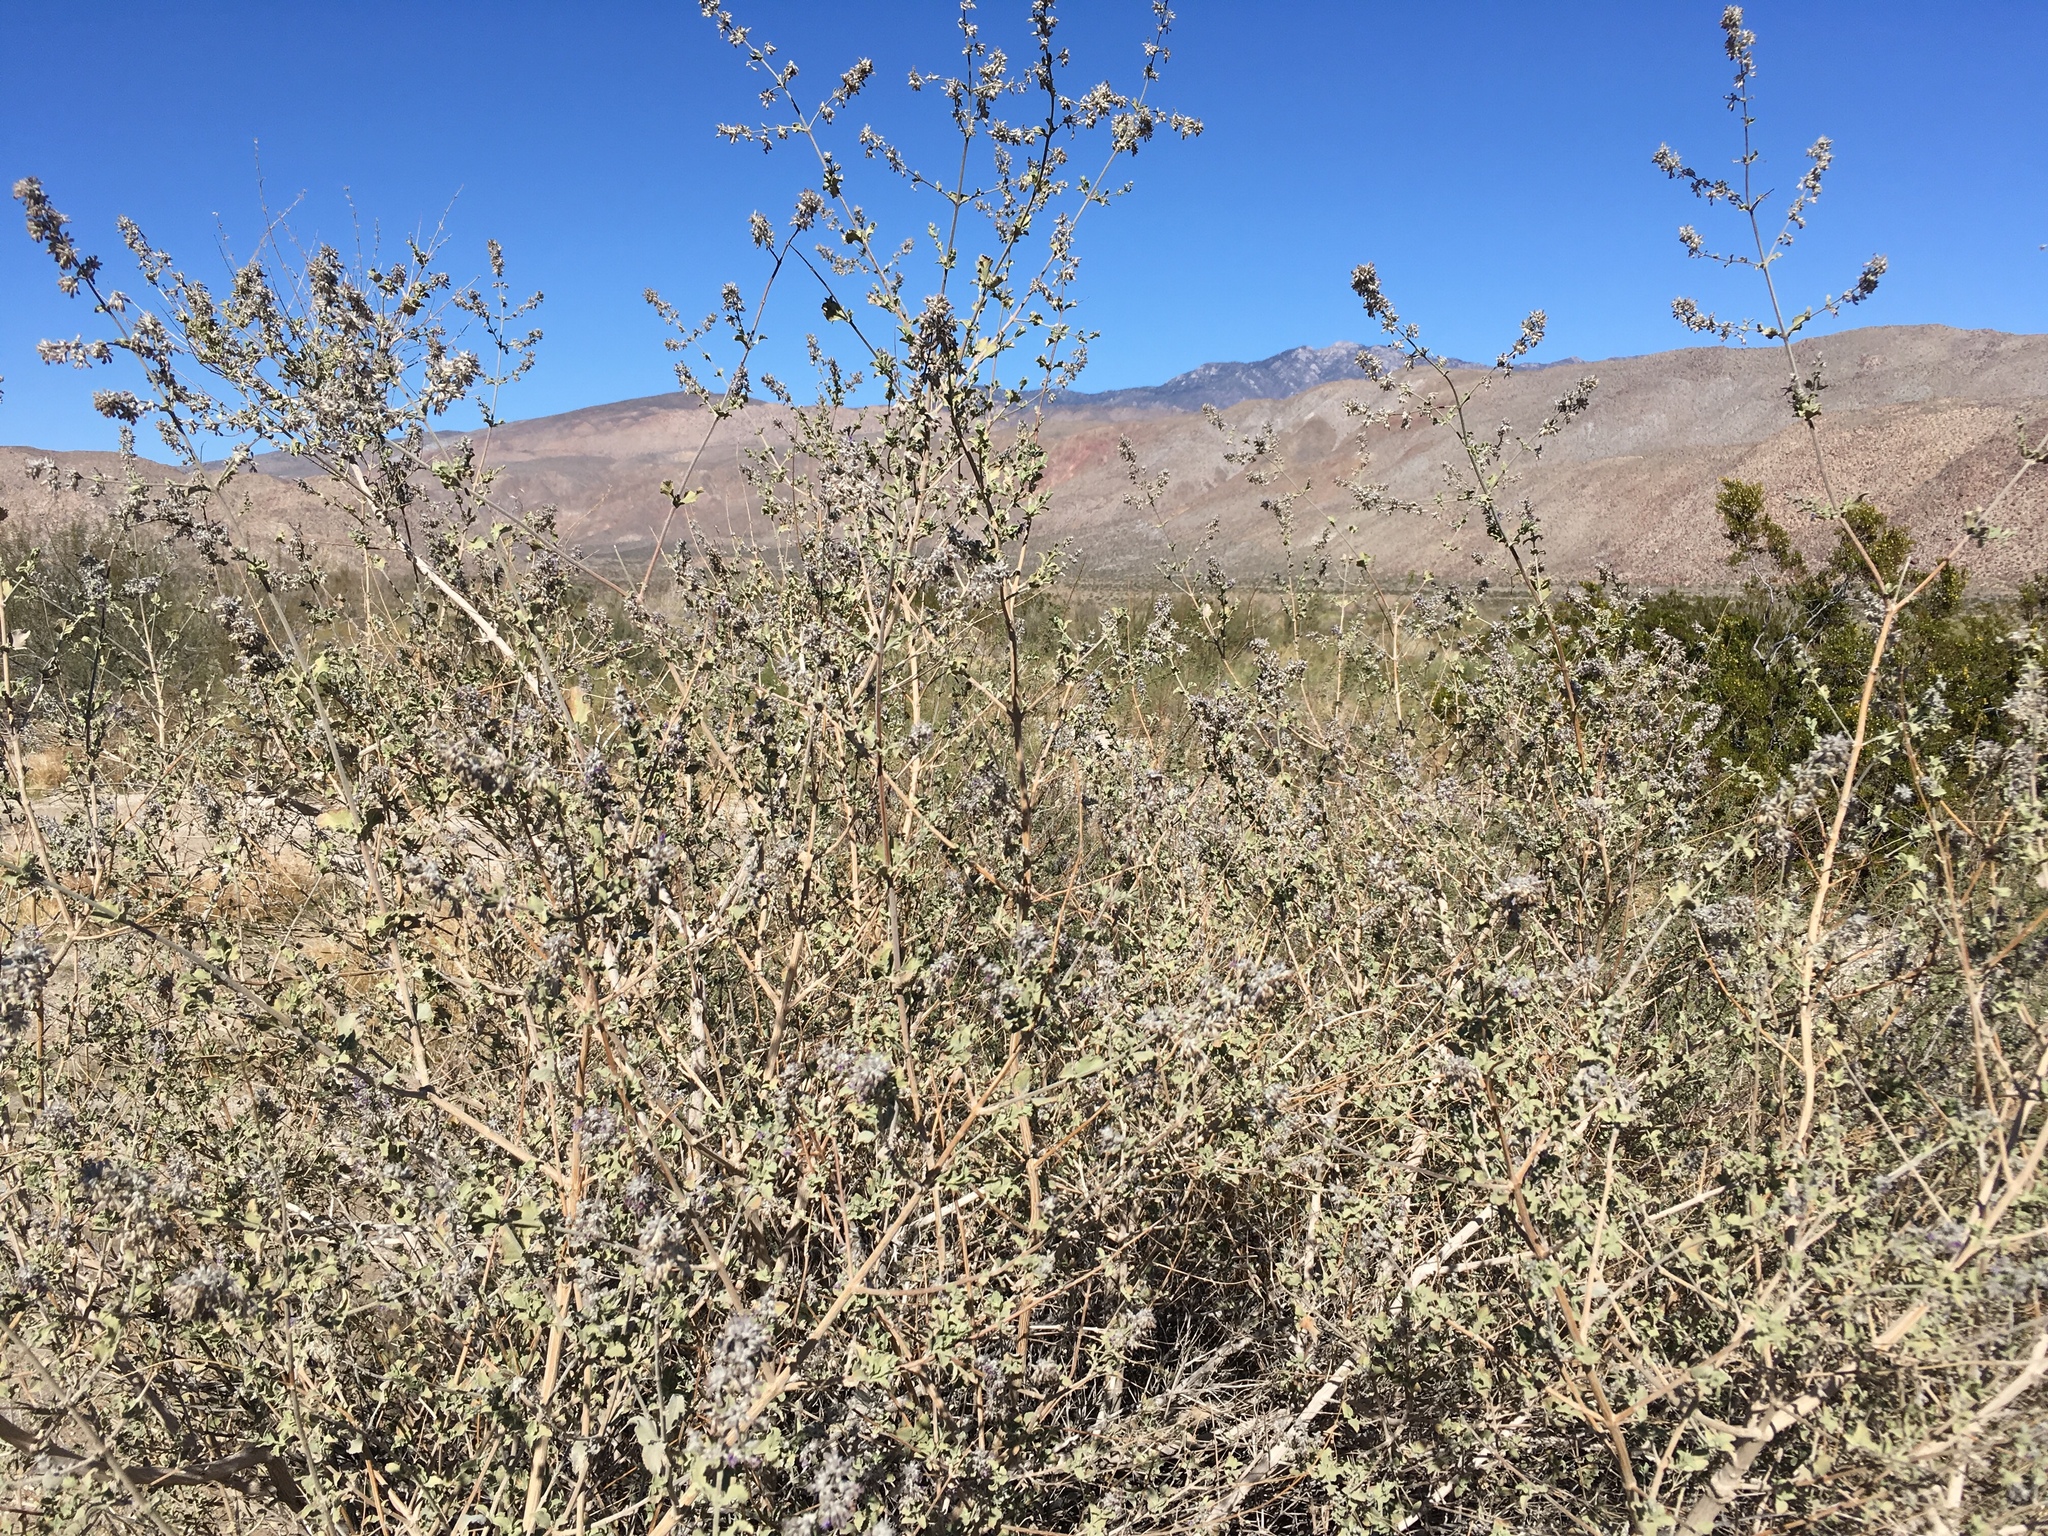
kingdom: Plantae
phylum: Tracheophyta
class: Magnoliopsida
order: Lamiales
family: Lamiaceae
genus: Condea
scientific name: Condea emoryi
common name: Chia
